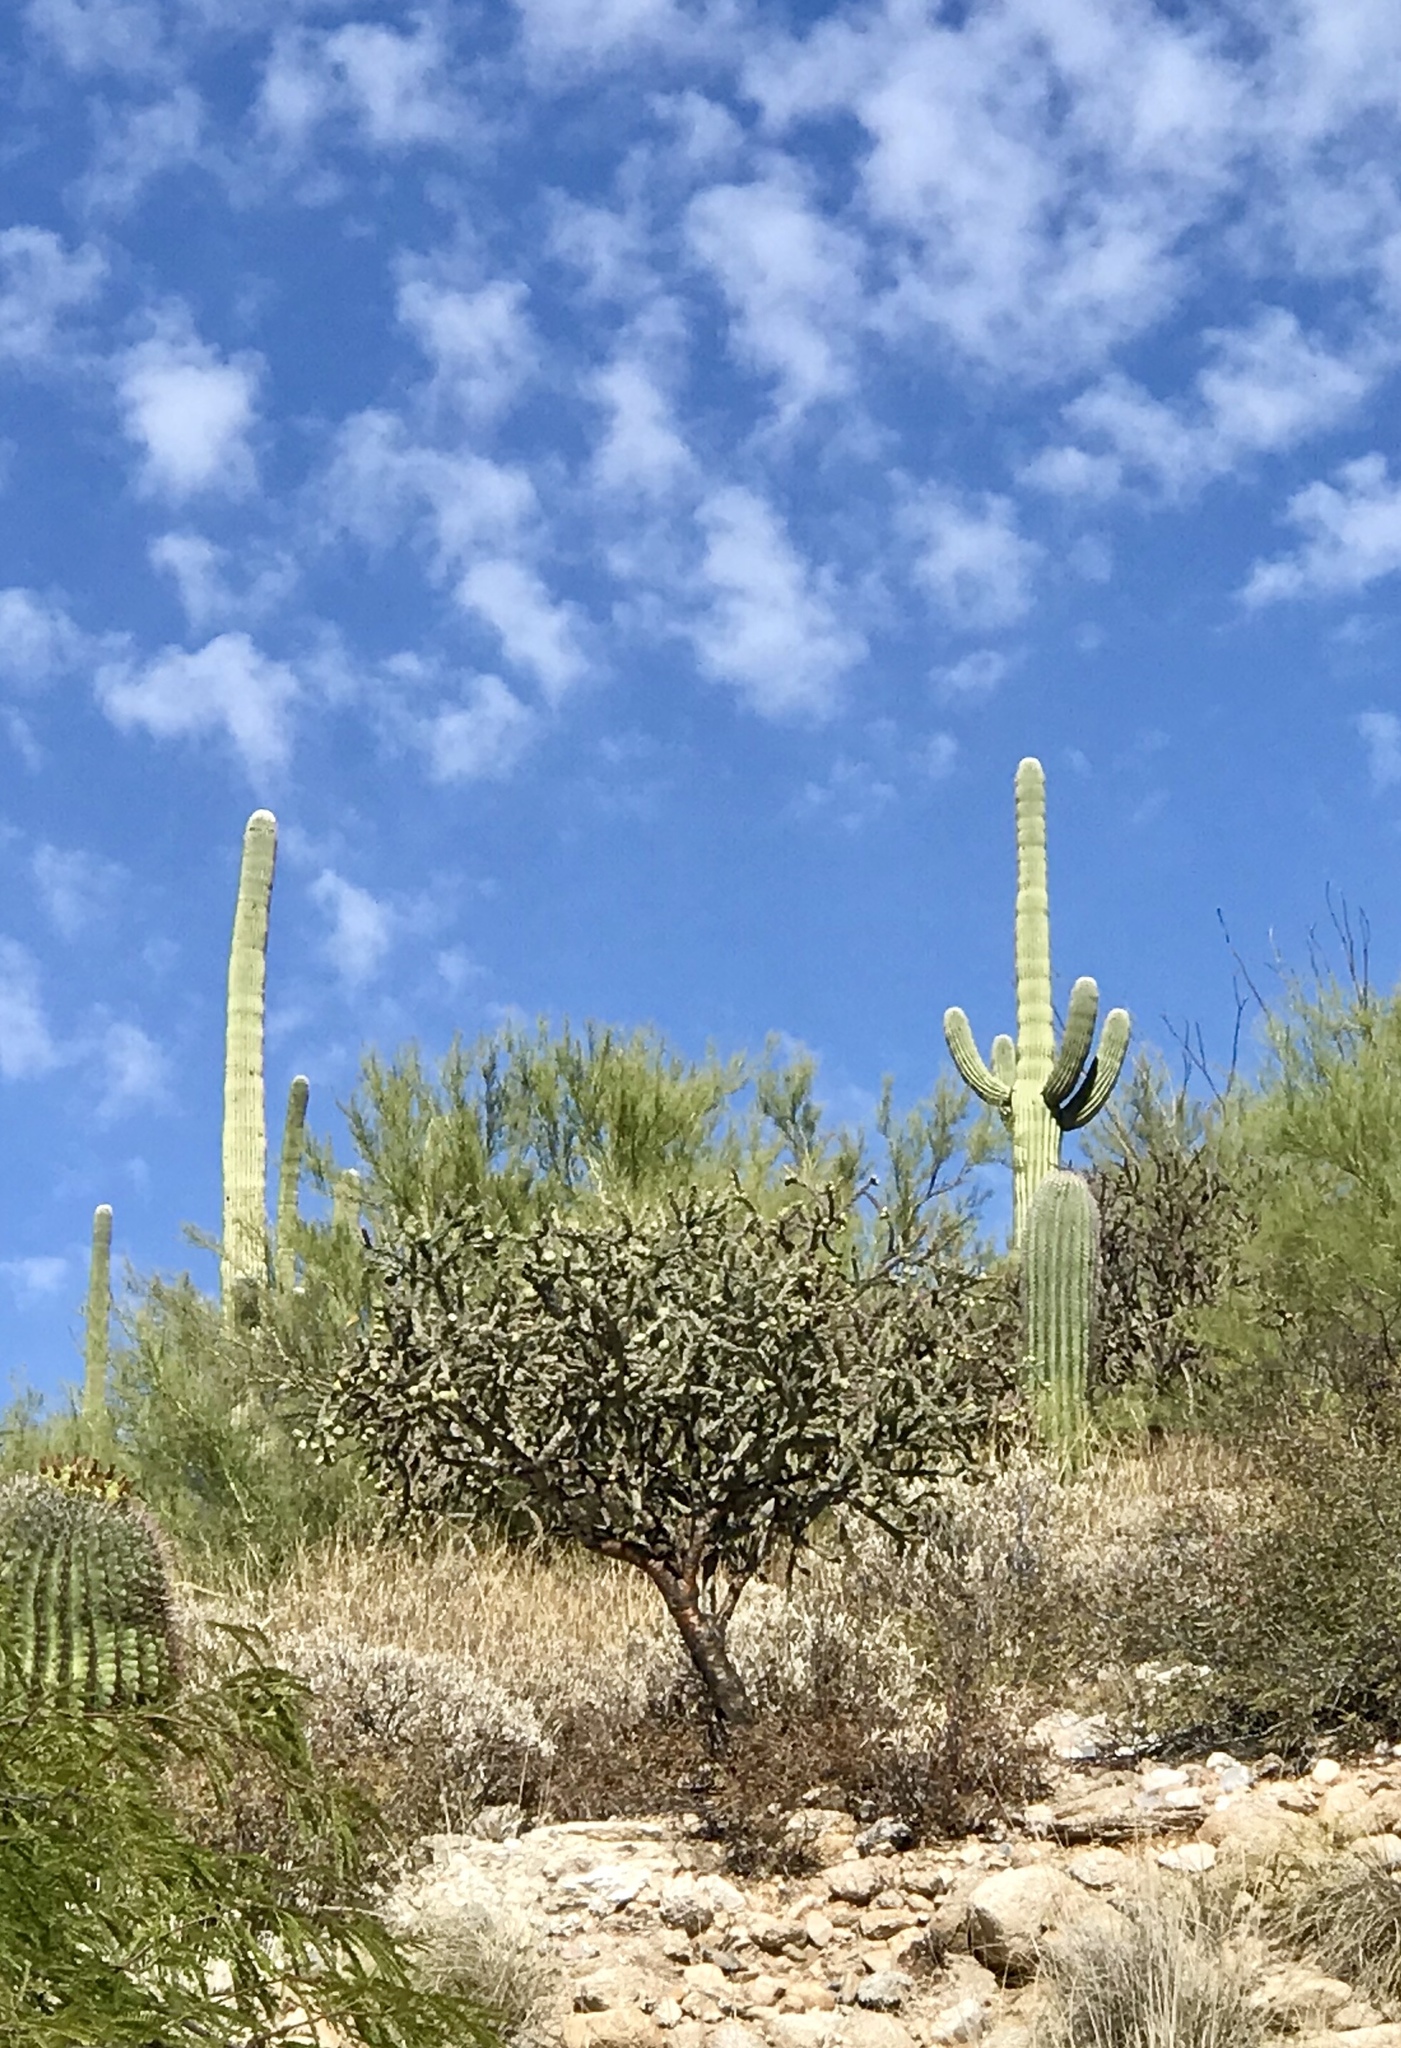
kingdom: Plantae
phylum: Tracheophyta
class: Magnoliopsida
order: Caryophyllales
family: Cactaceae
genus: Carnegiea
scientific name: Carnegiea gigantea
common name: Saguaro
